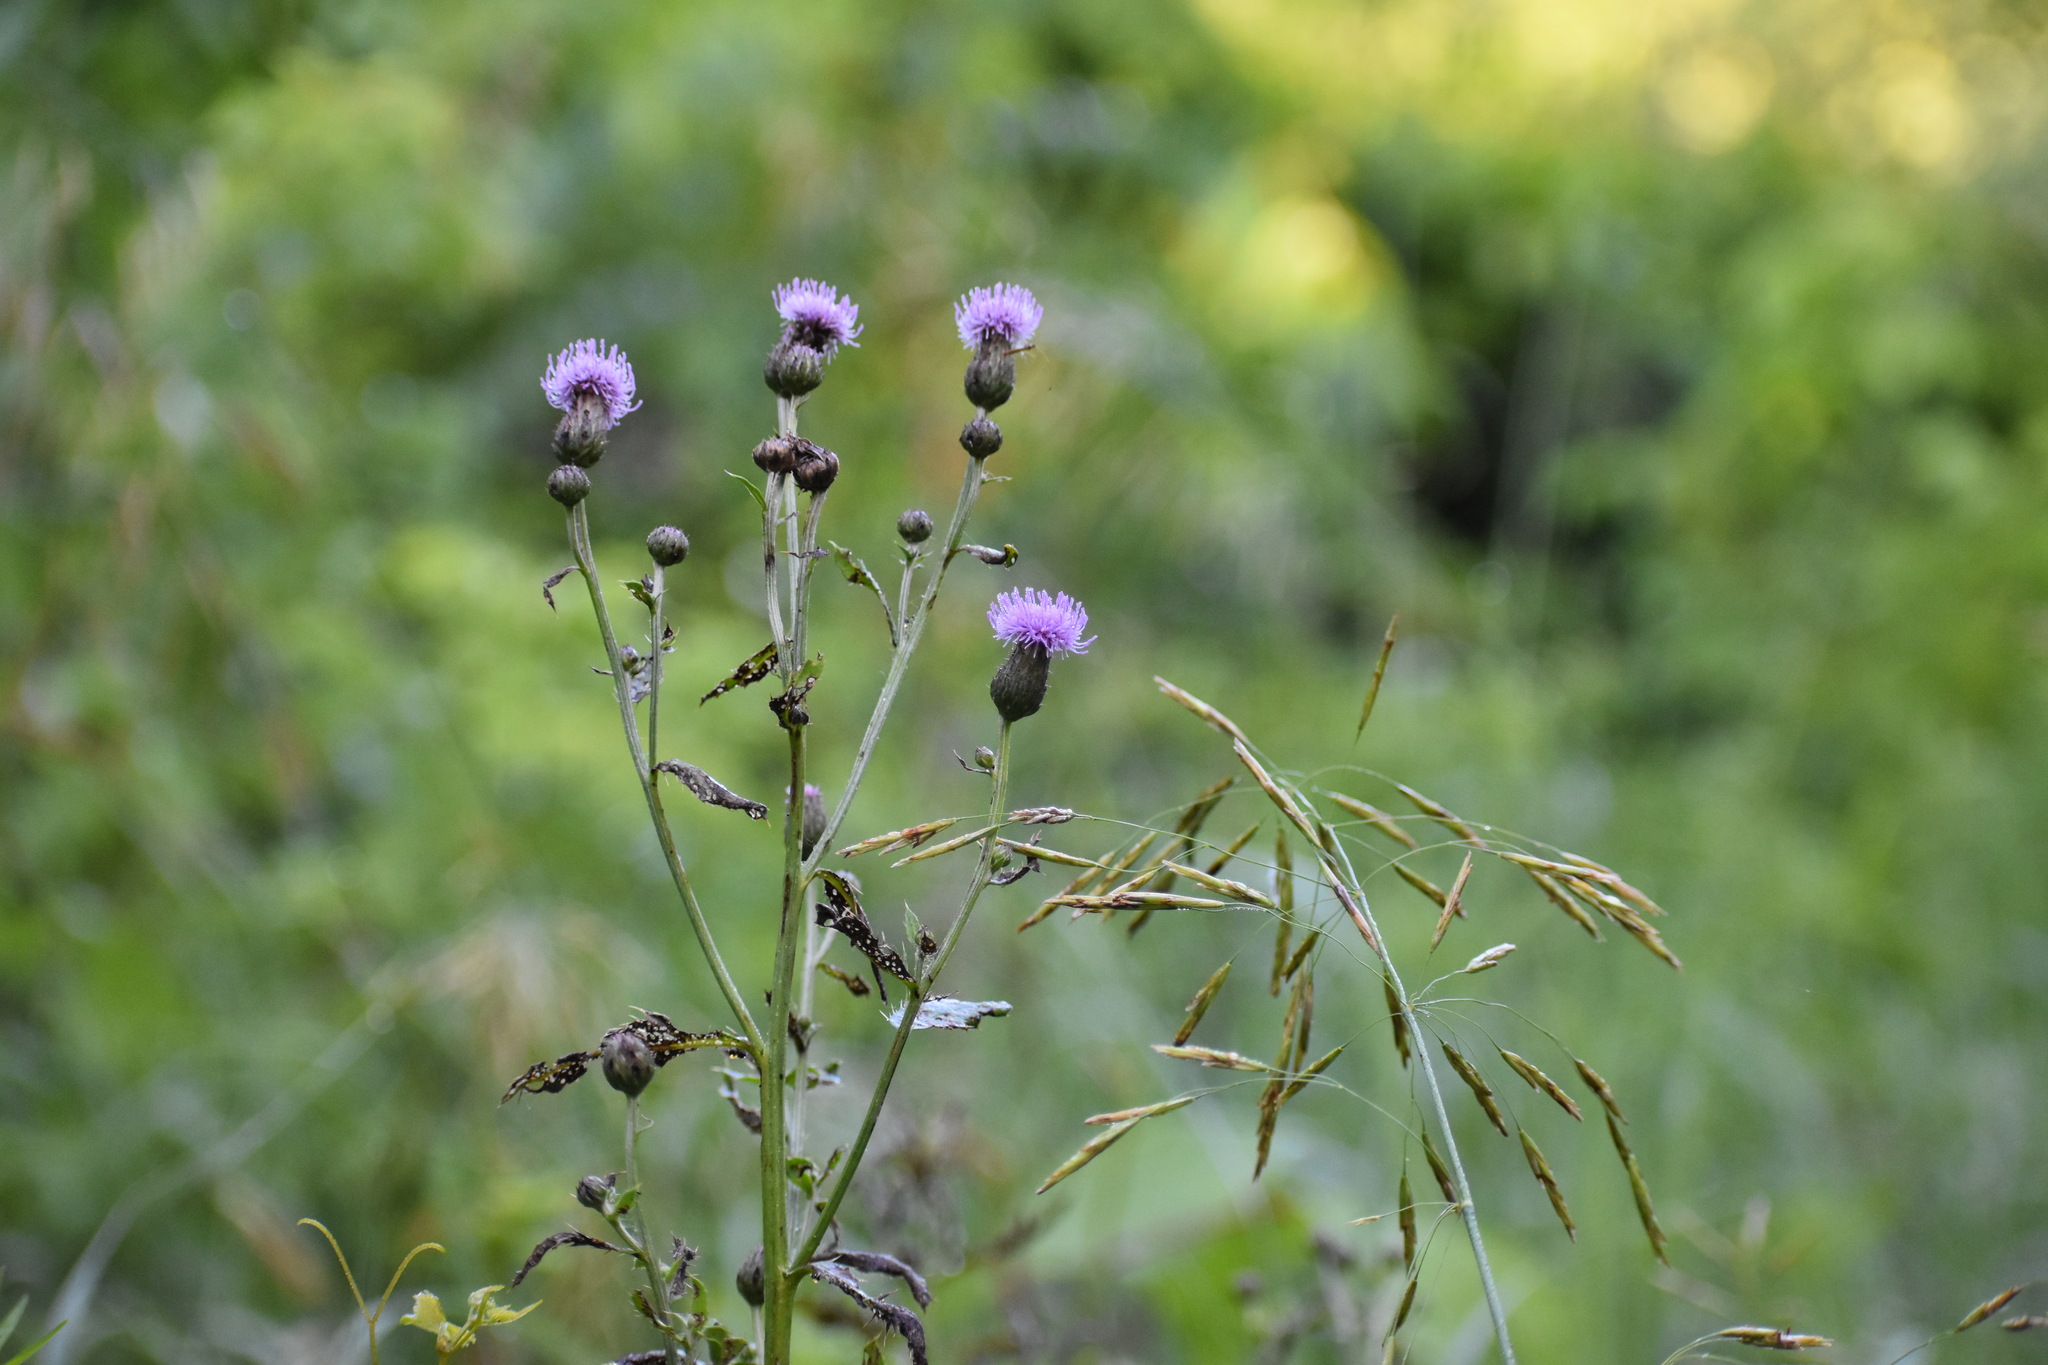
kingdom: Plantae
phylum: Tracheophyta
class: Magnoliopsida
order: Asterales
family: Asteraceae
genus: Cirsium
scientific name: Cirsium arvense
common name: Creeping thistle
